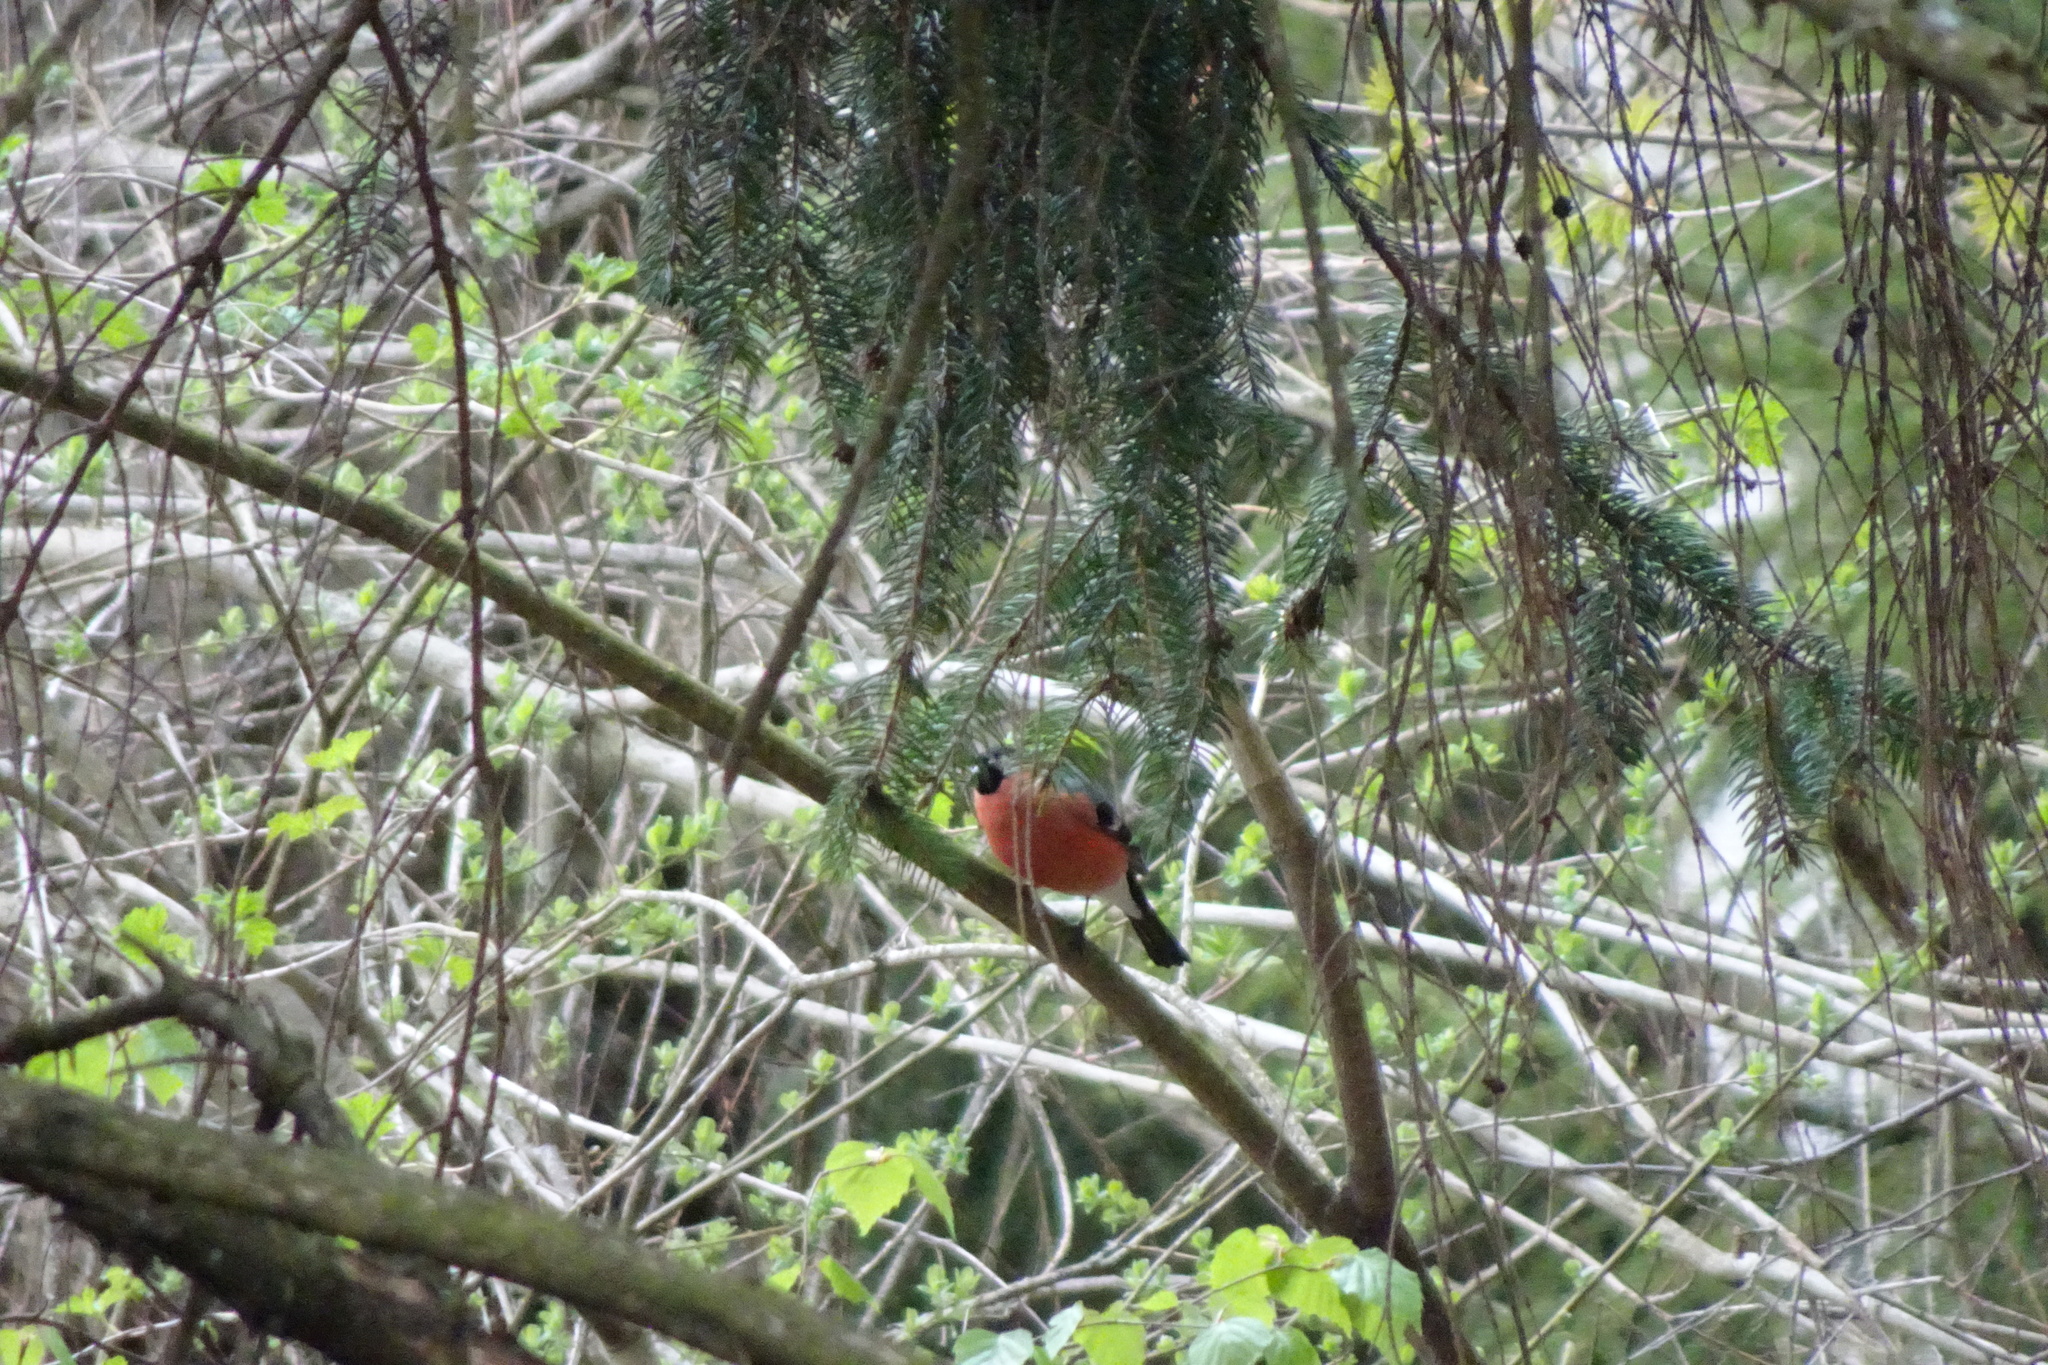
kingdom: Animalia
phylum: Chordata
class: Aves
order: Passeriformes
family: Fringillidae
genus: Pyrrhula
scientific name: Pyrrhula pyrrhula
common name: Eurasian bullfinch
